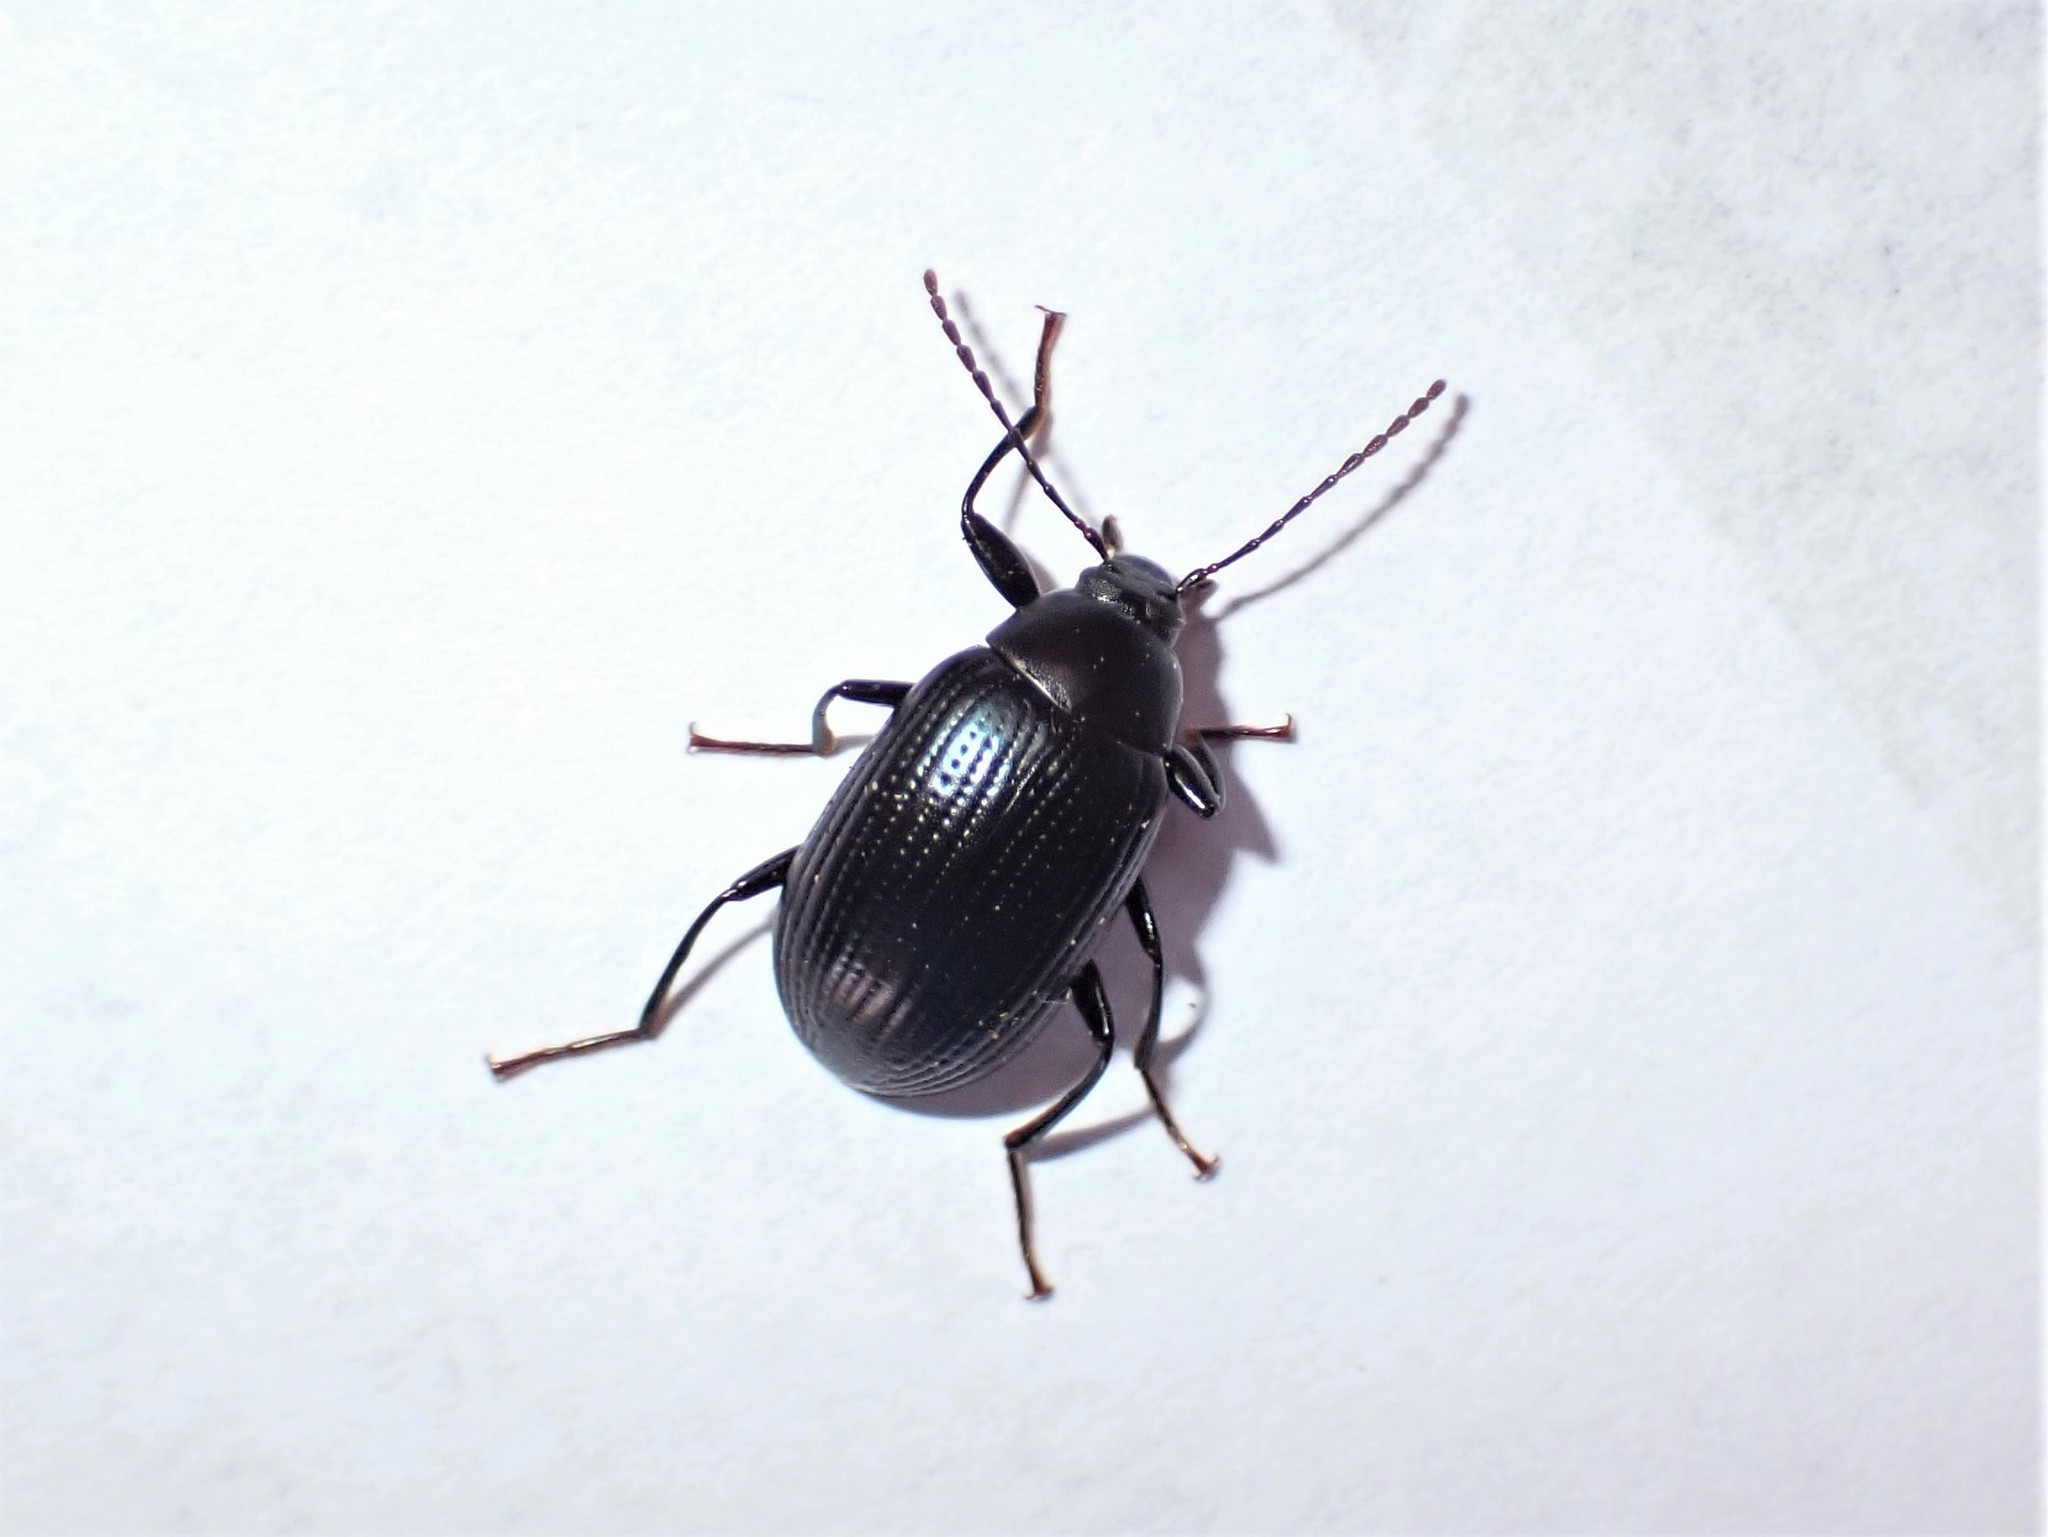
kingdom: Animalia
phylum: Arthropoda
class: Insecta
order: Coleoptera
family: Tenebrionidae
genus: Amarygmus
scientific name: Amarygmus
